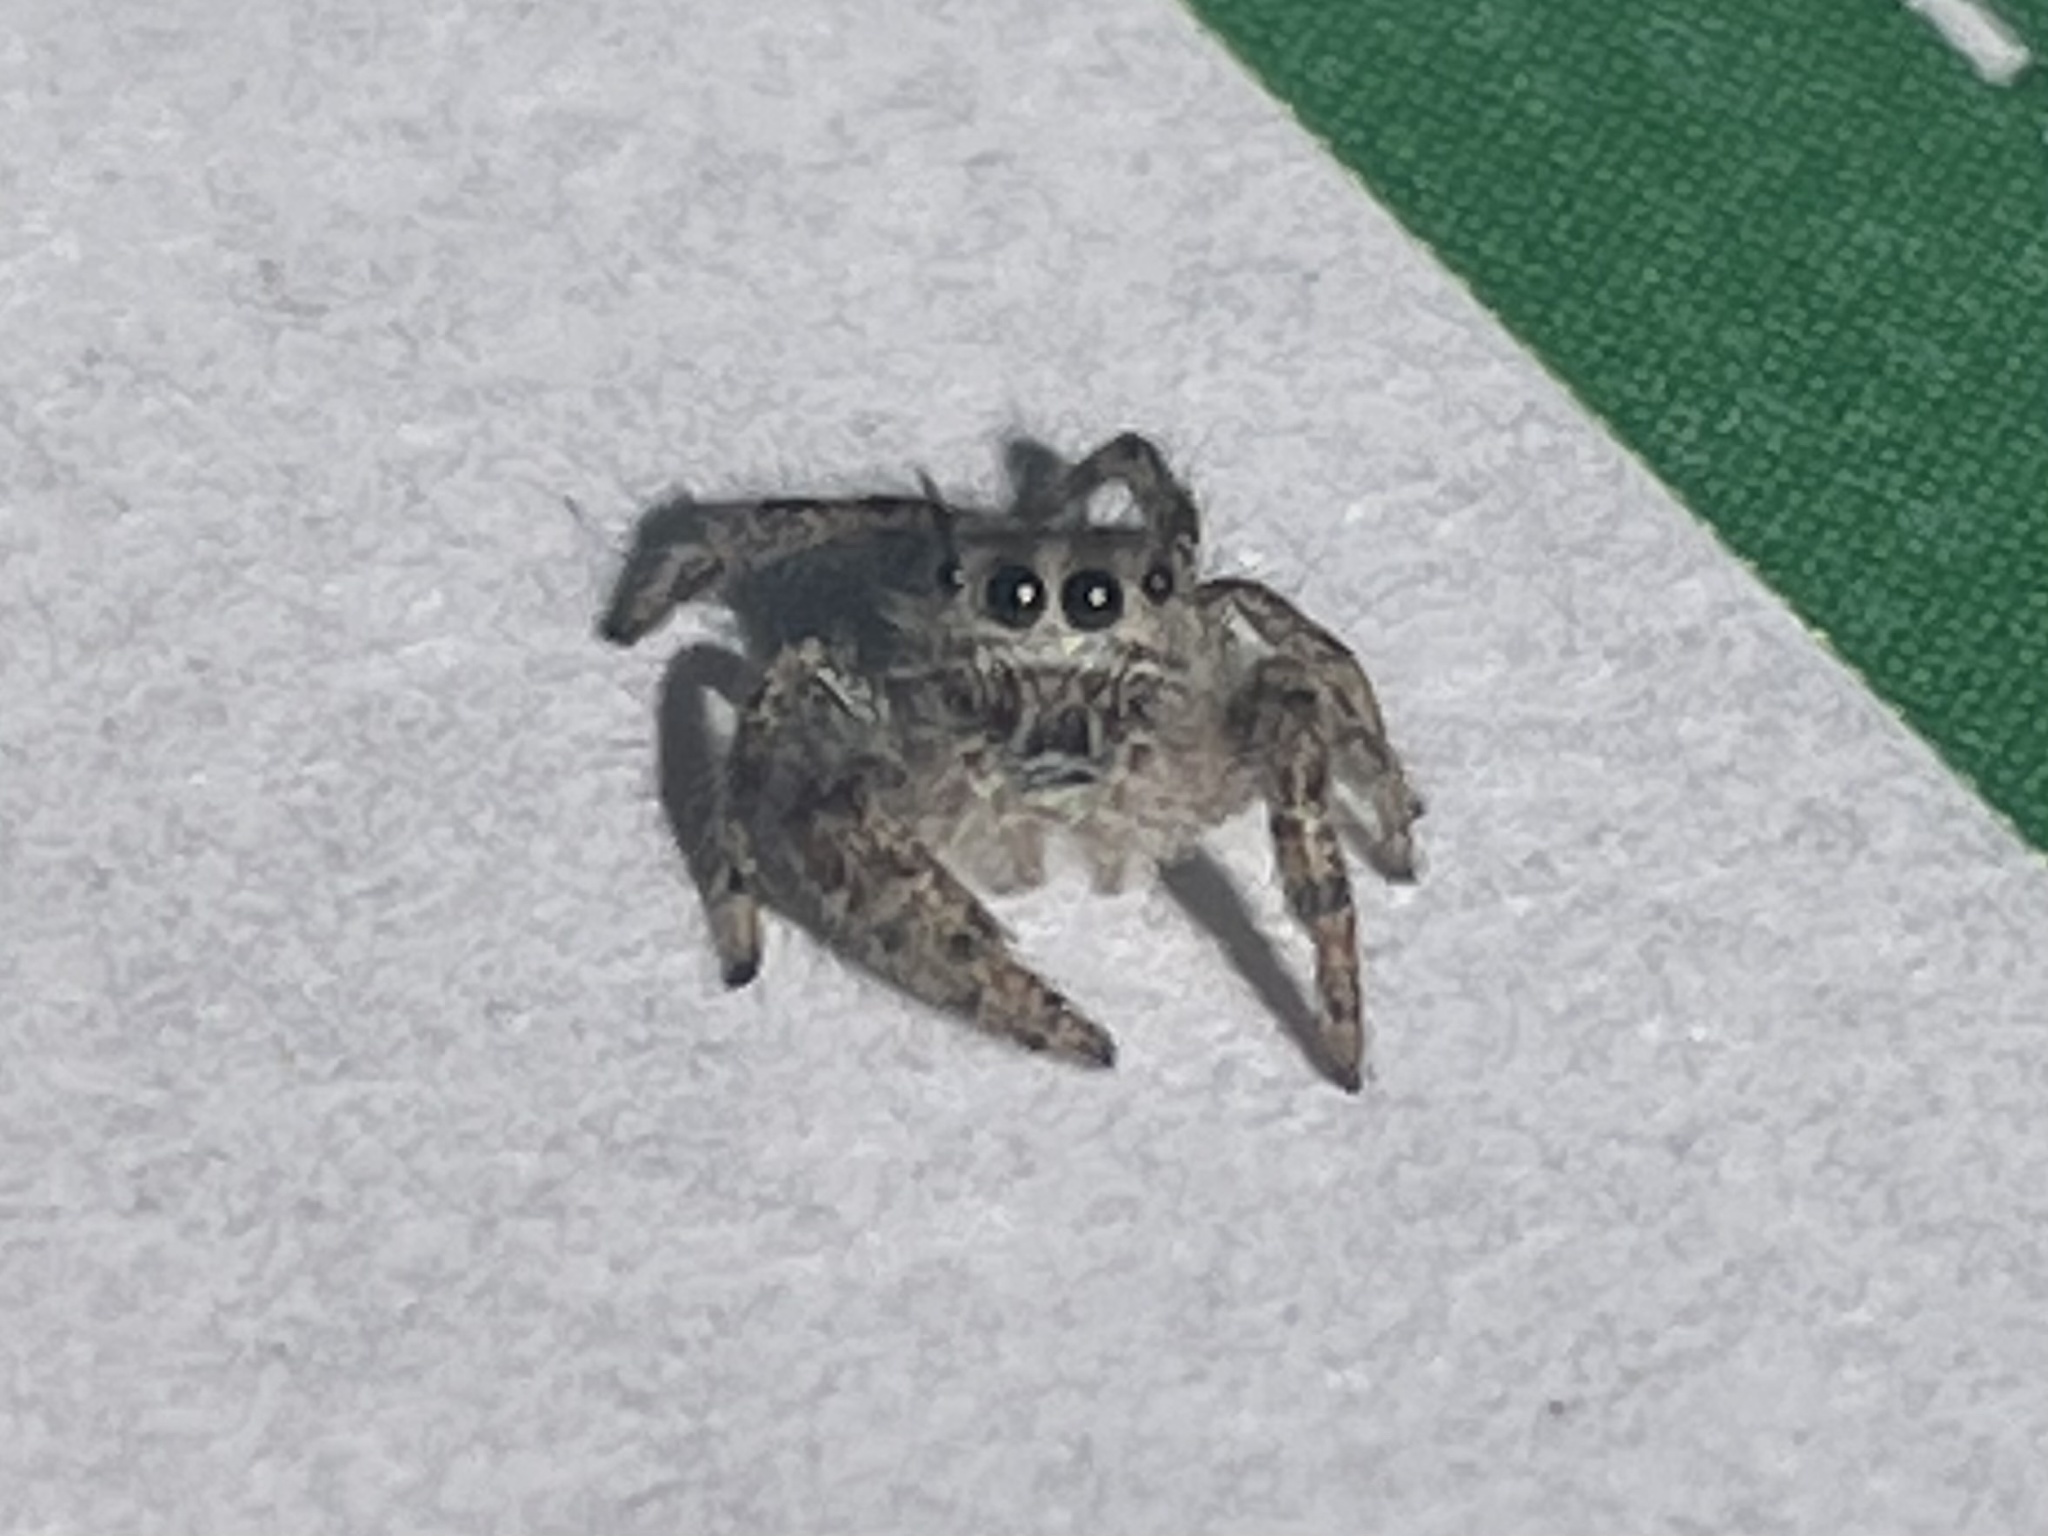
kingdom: Animalia
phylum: Arthropoda
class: Arachnida
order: Araneae
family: Salticidae
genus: Phidippus
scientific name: Phidippus putnami
